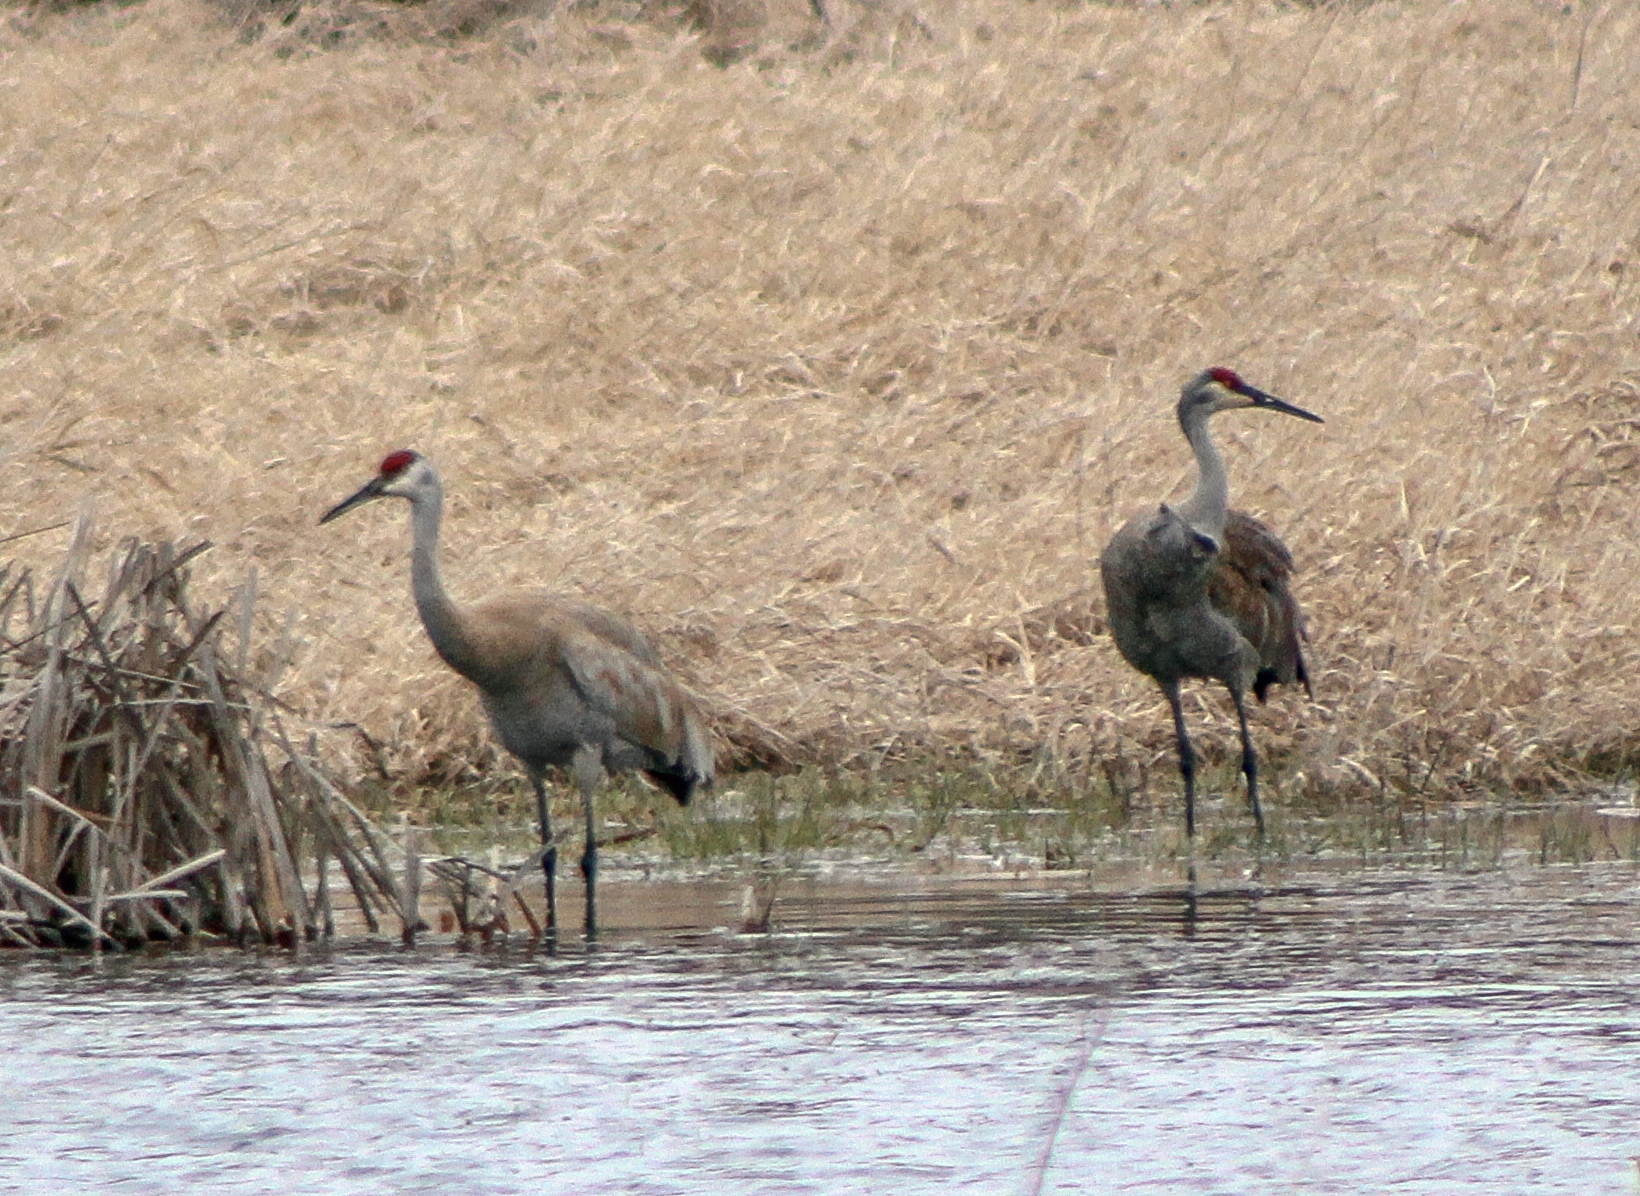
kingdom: Animalia
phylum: Chordata
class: Aves
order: Gruiformes
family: Gruidae
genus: Grus
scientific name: Grus canadensis
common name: Sandhill crane
